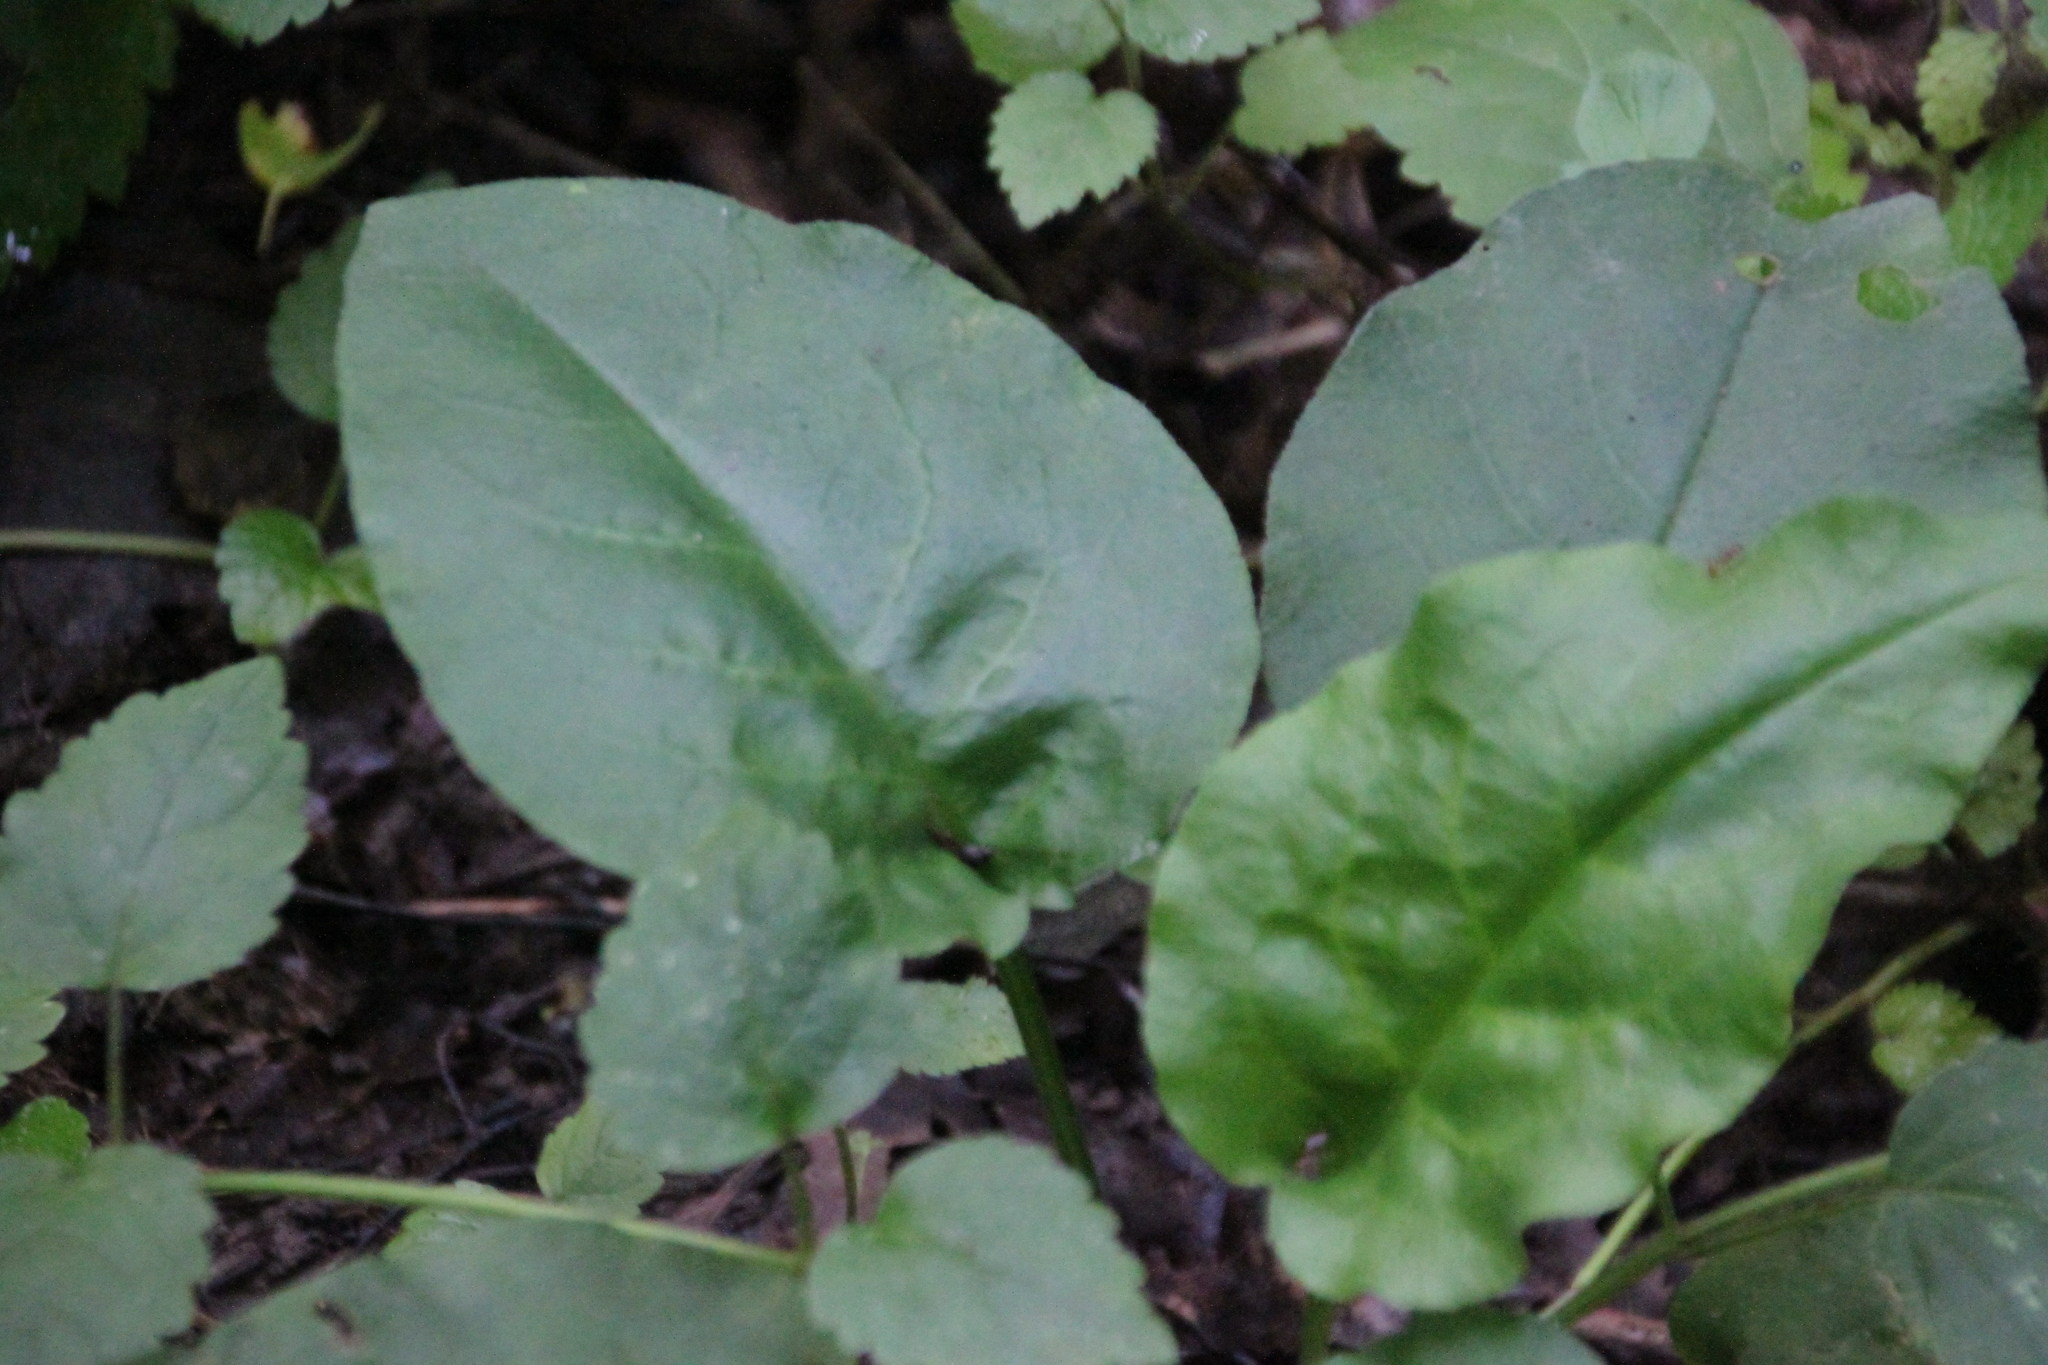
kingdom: Plantae
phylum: Tracheophyta
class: Magnoliopsida
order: Boraginales
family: Boraginaceae
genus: Pulmonaria
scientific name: Pulmonaria obscura
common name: Suffolk lungwort
